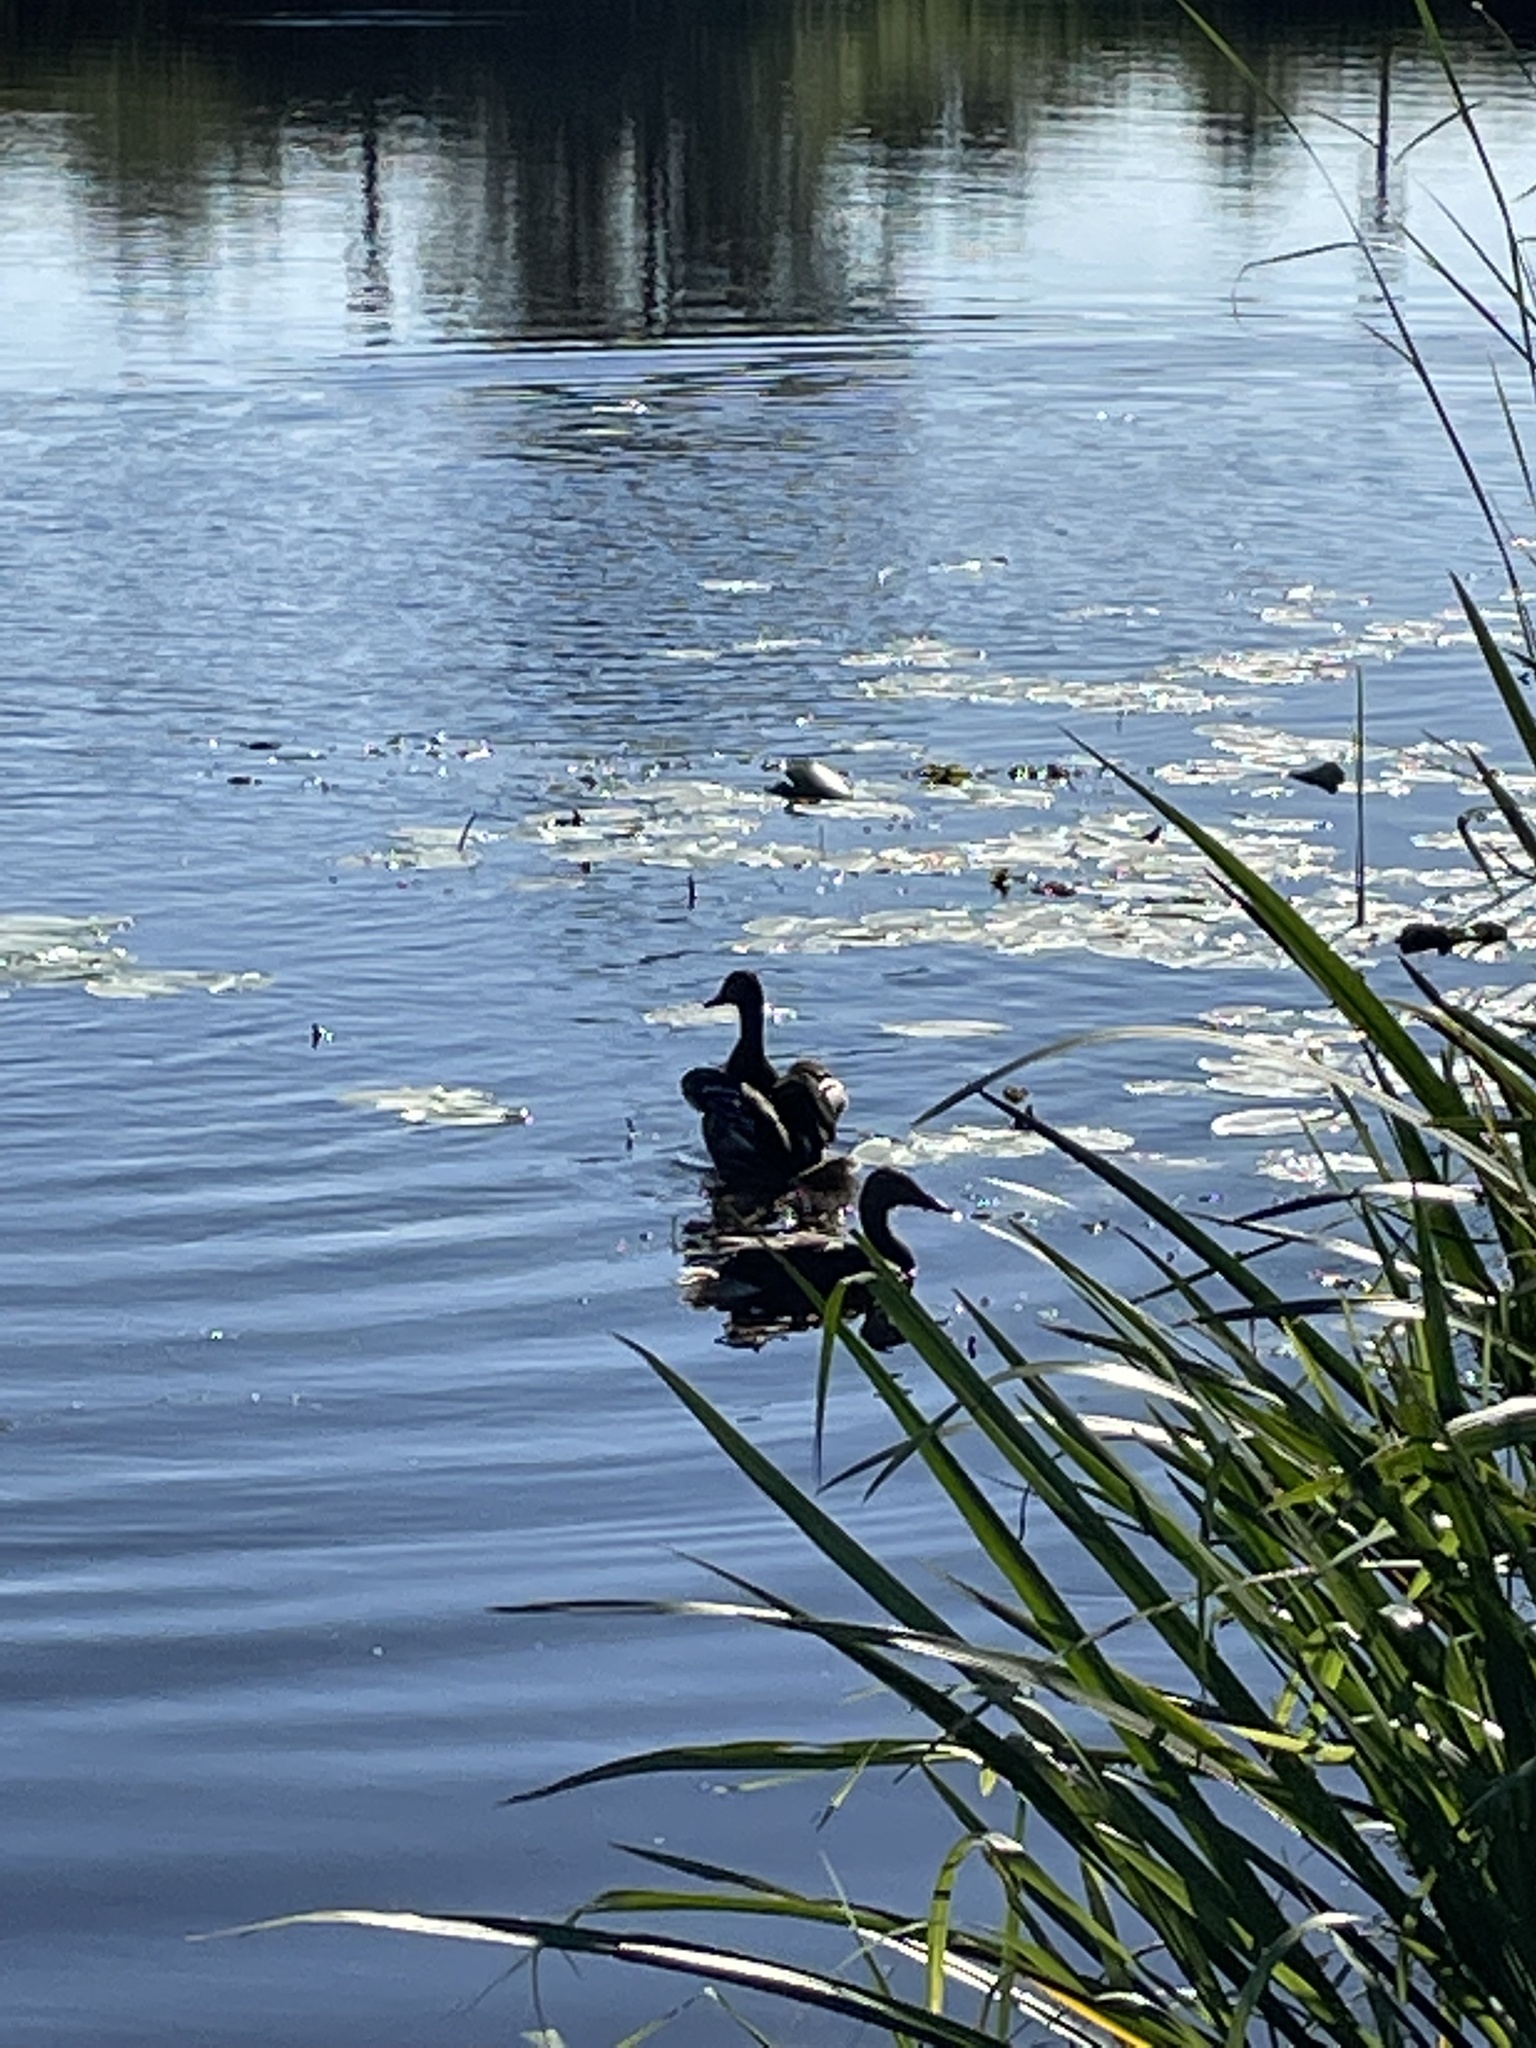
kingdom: Animalia
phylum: Chordata
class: Aves
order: Anseriformes
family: Anatidae
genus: Anas
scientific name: Anas platyrhynchos
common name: Mallard
